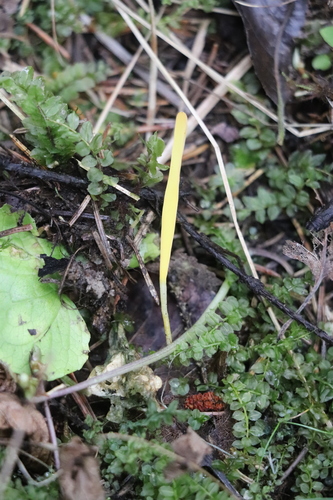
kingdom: Fungi
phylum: Basidiomycota
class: Agaricomycetes
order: Agaricales
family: Clavariaceae
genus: Clavaria
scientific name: Clavaria
